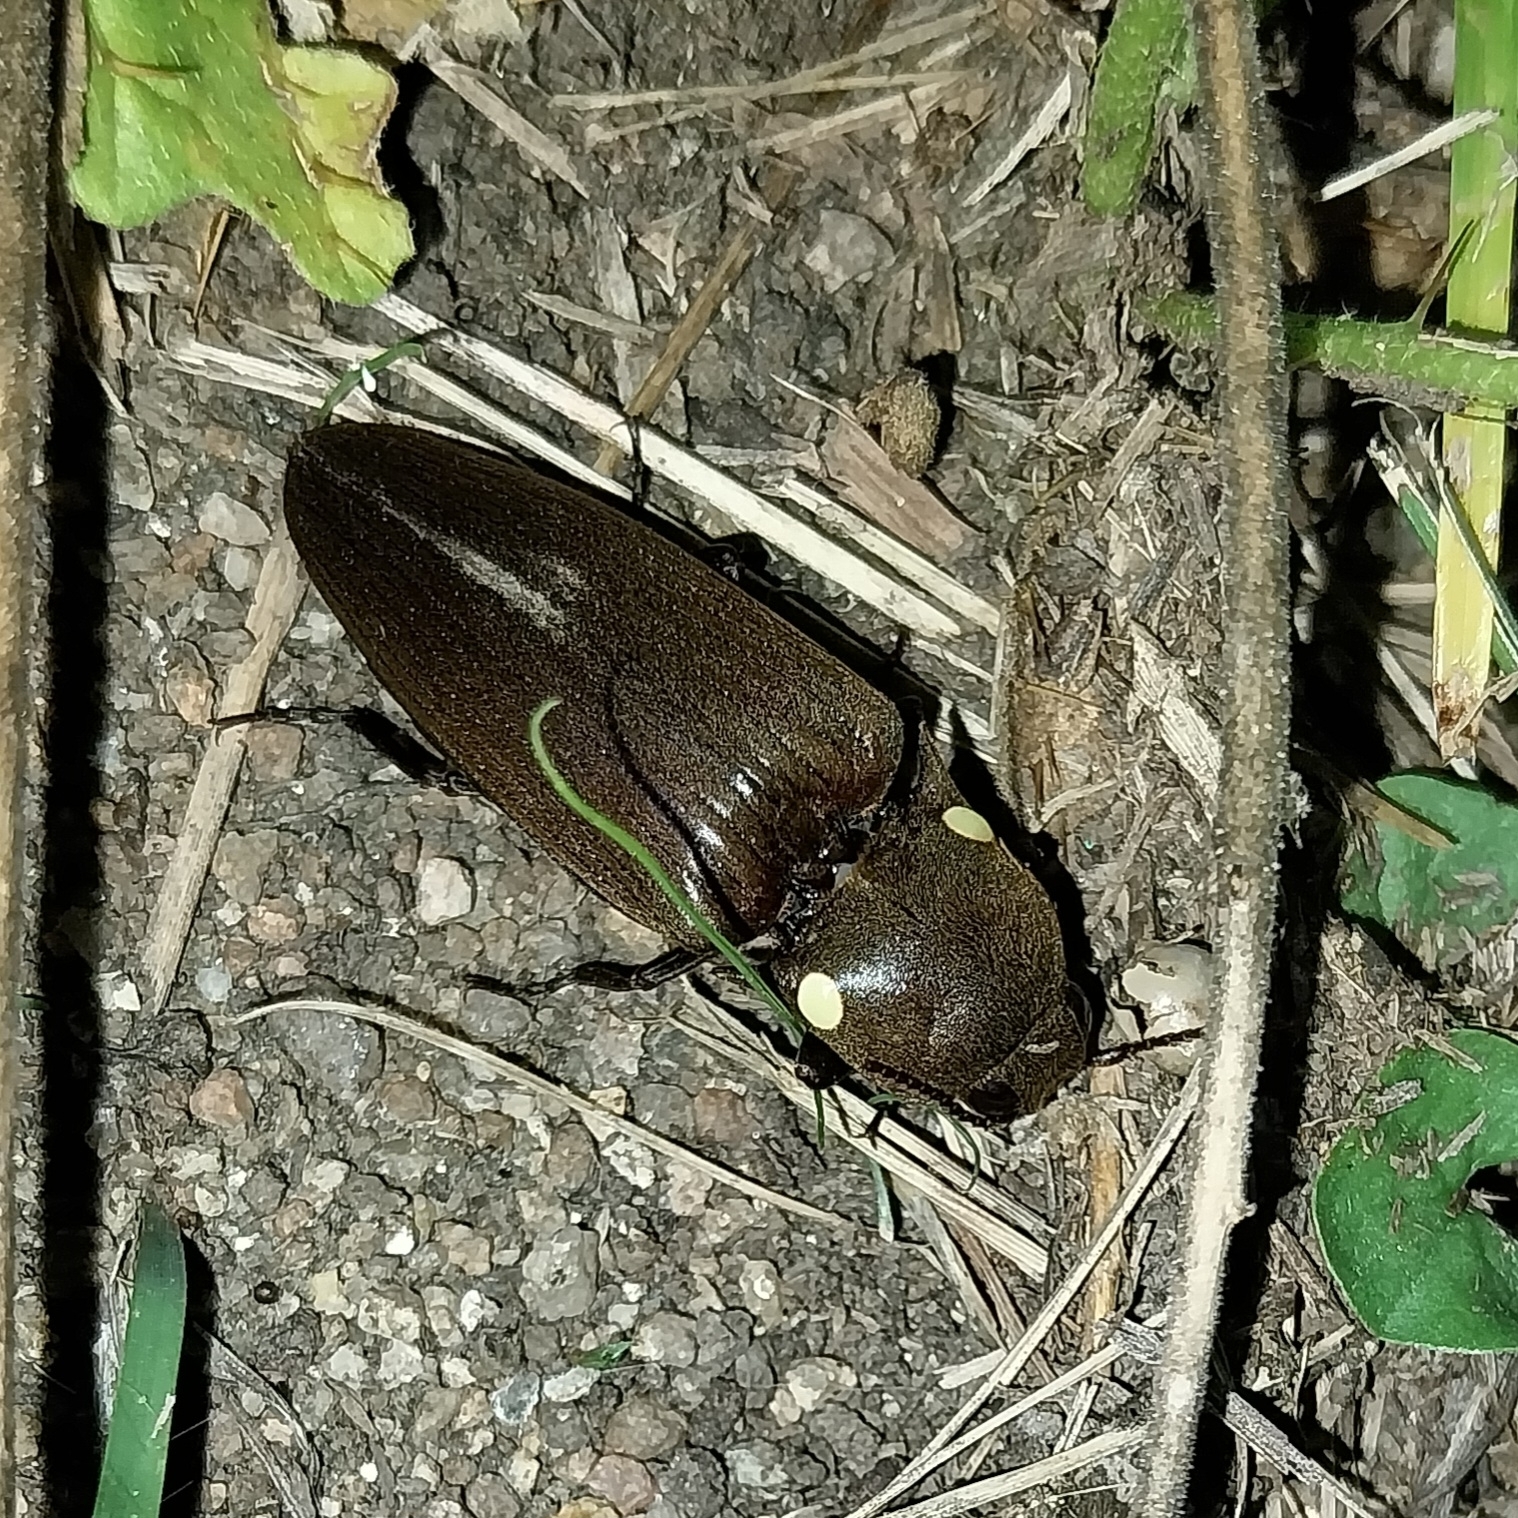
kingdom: Animalia
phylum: Arthropoda
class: Insecta
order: Coleoptera
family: Elateridae
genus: Pyrophorus
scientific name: Pyrophorus
